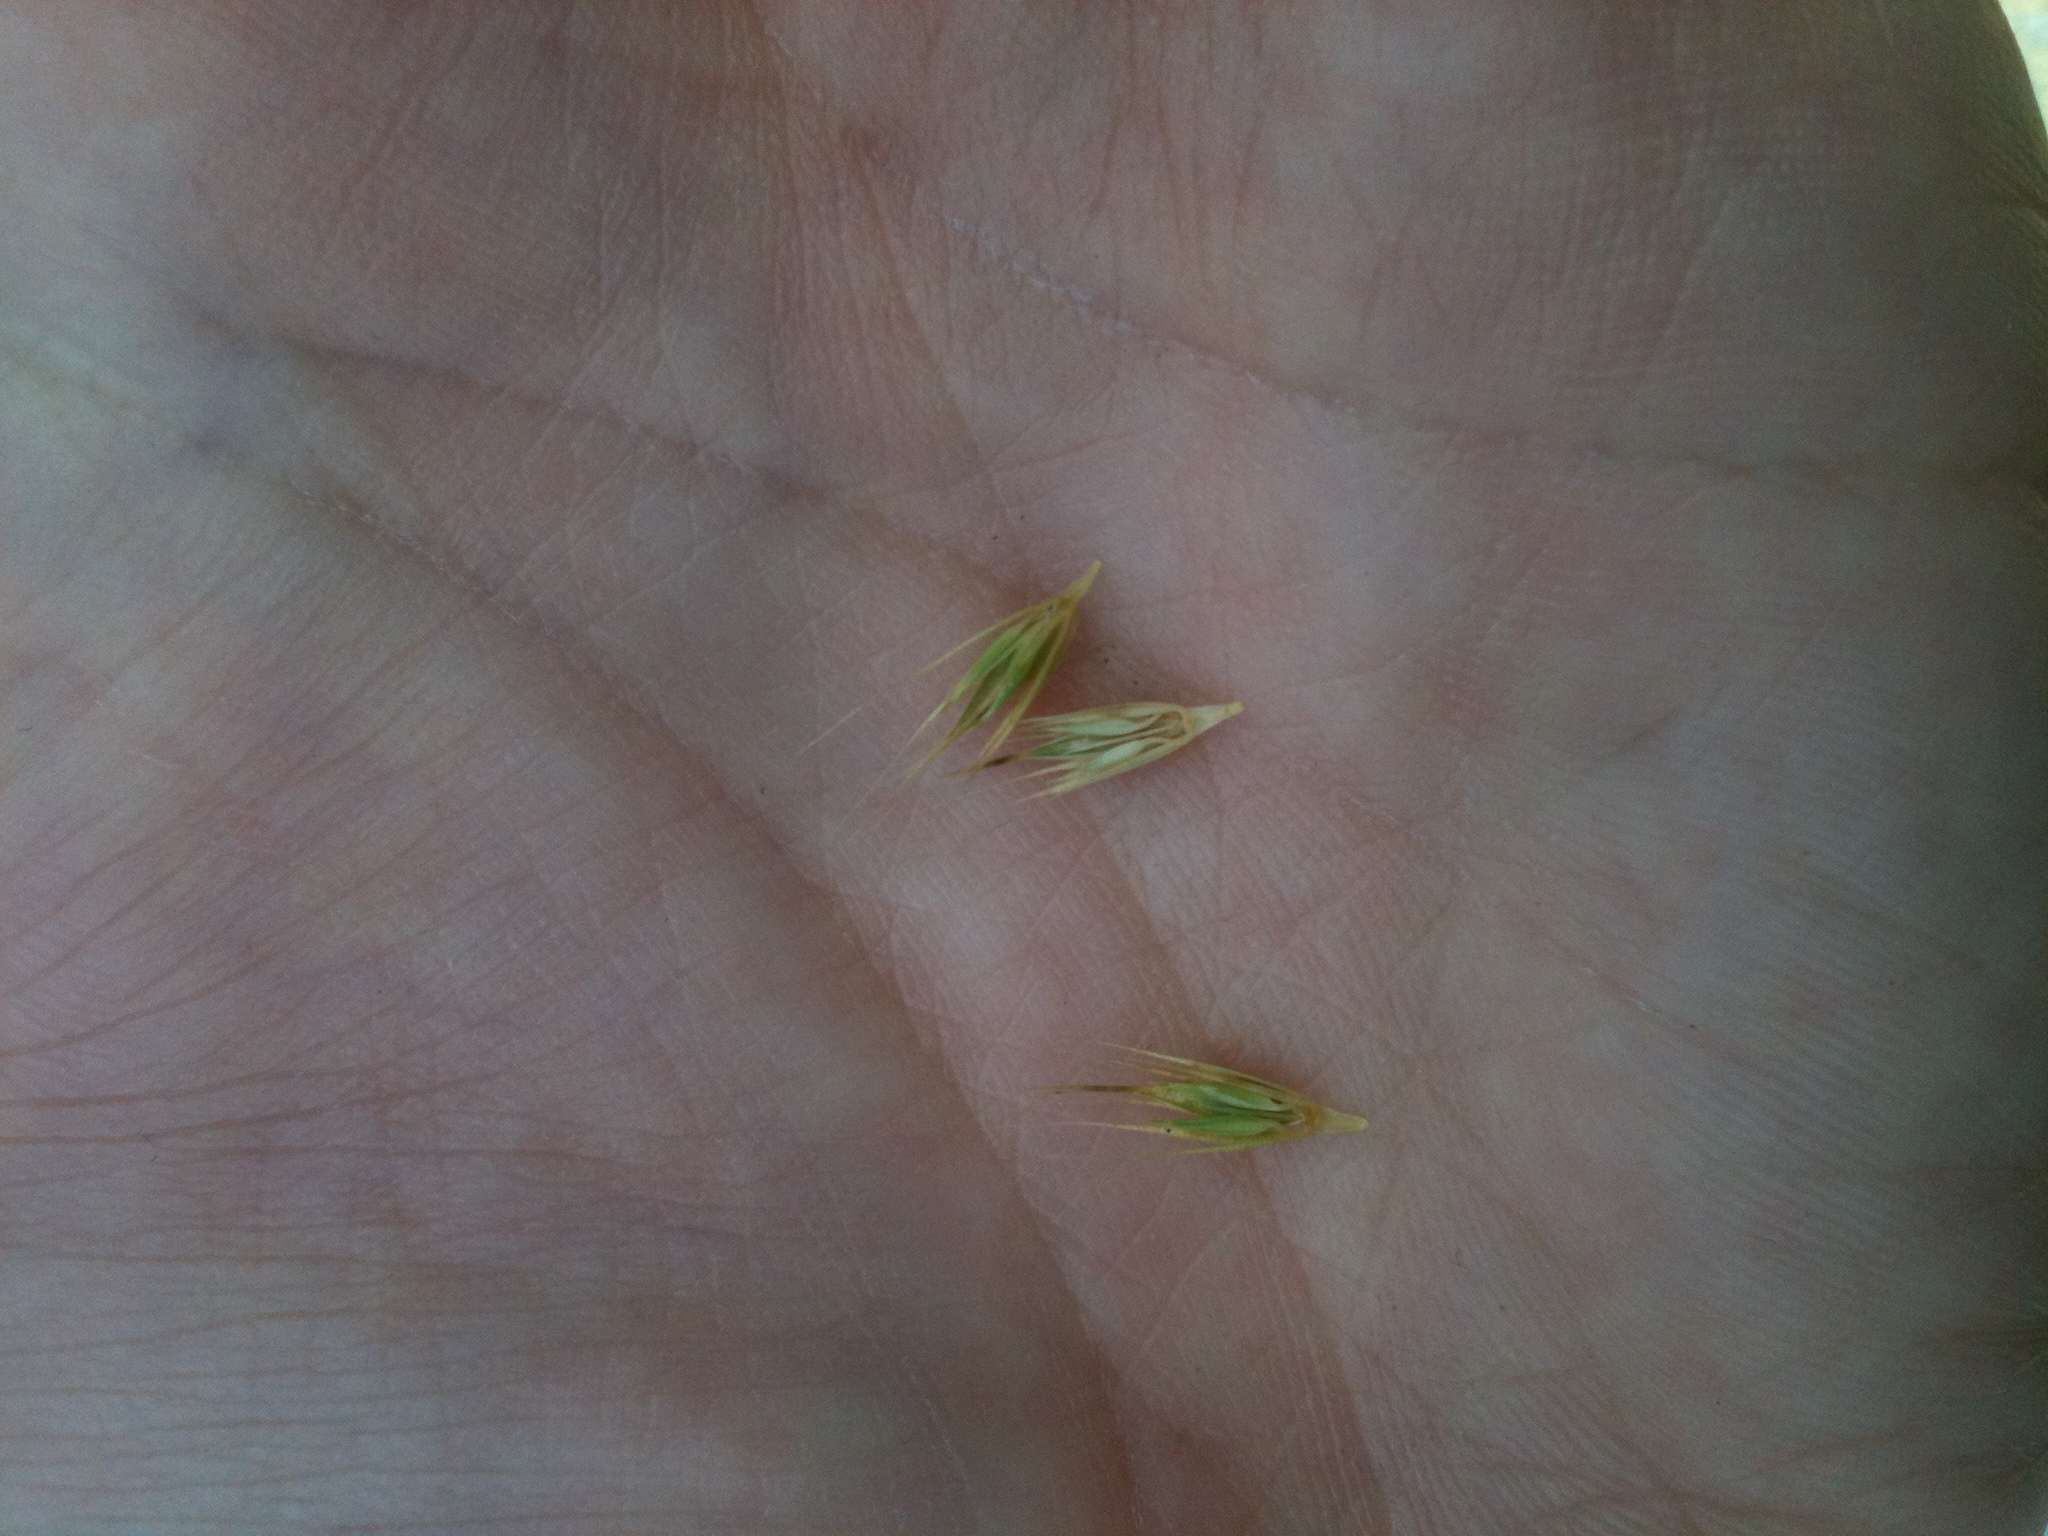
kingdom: Plantae
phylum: Tracheophyta
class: Liliopsida
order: Poales
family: Poaceae
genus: Hordeum
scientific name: Hordeum pusillum
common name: Little barley
